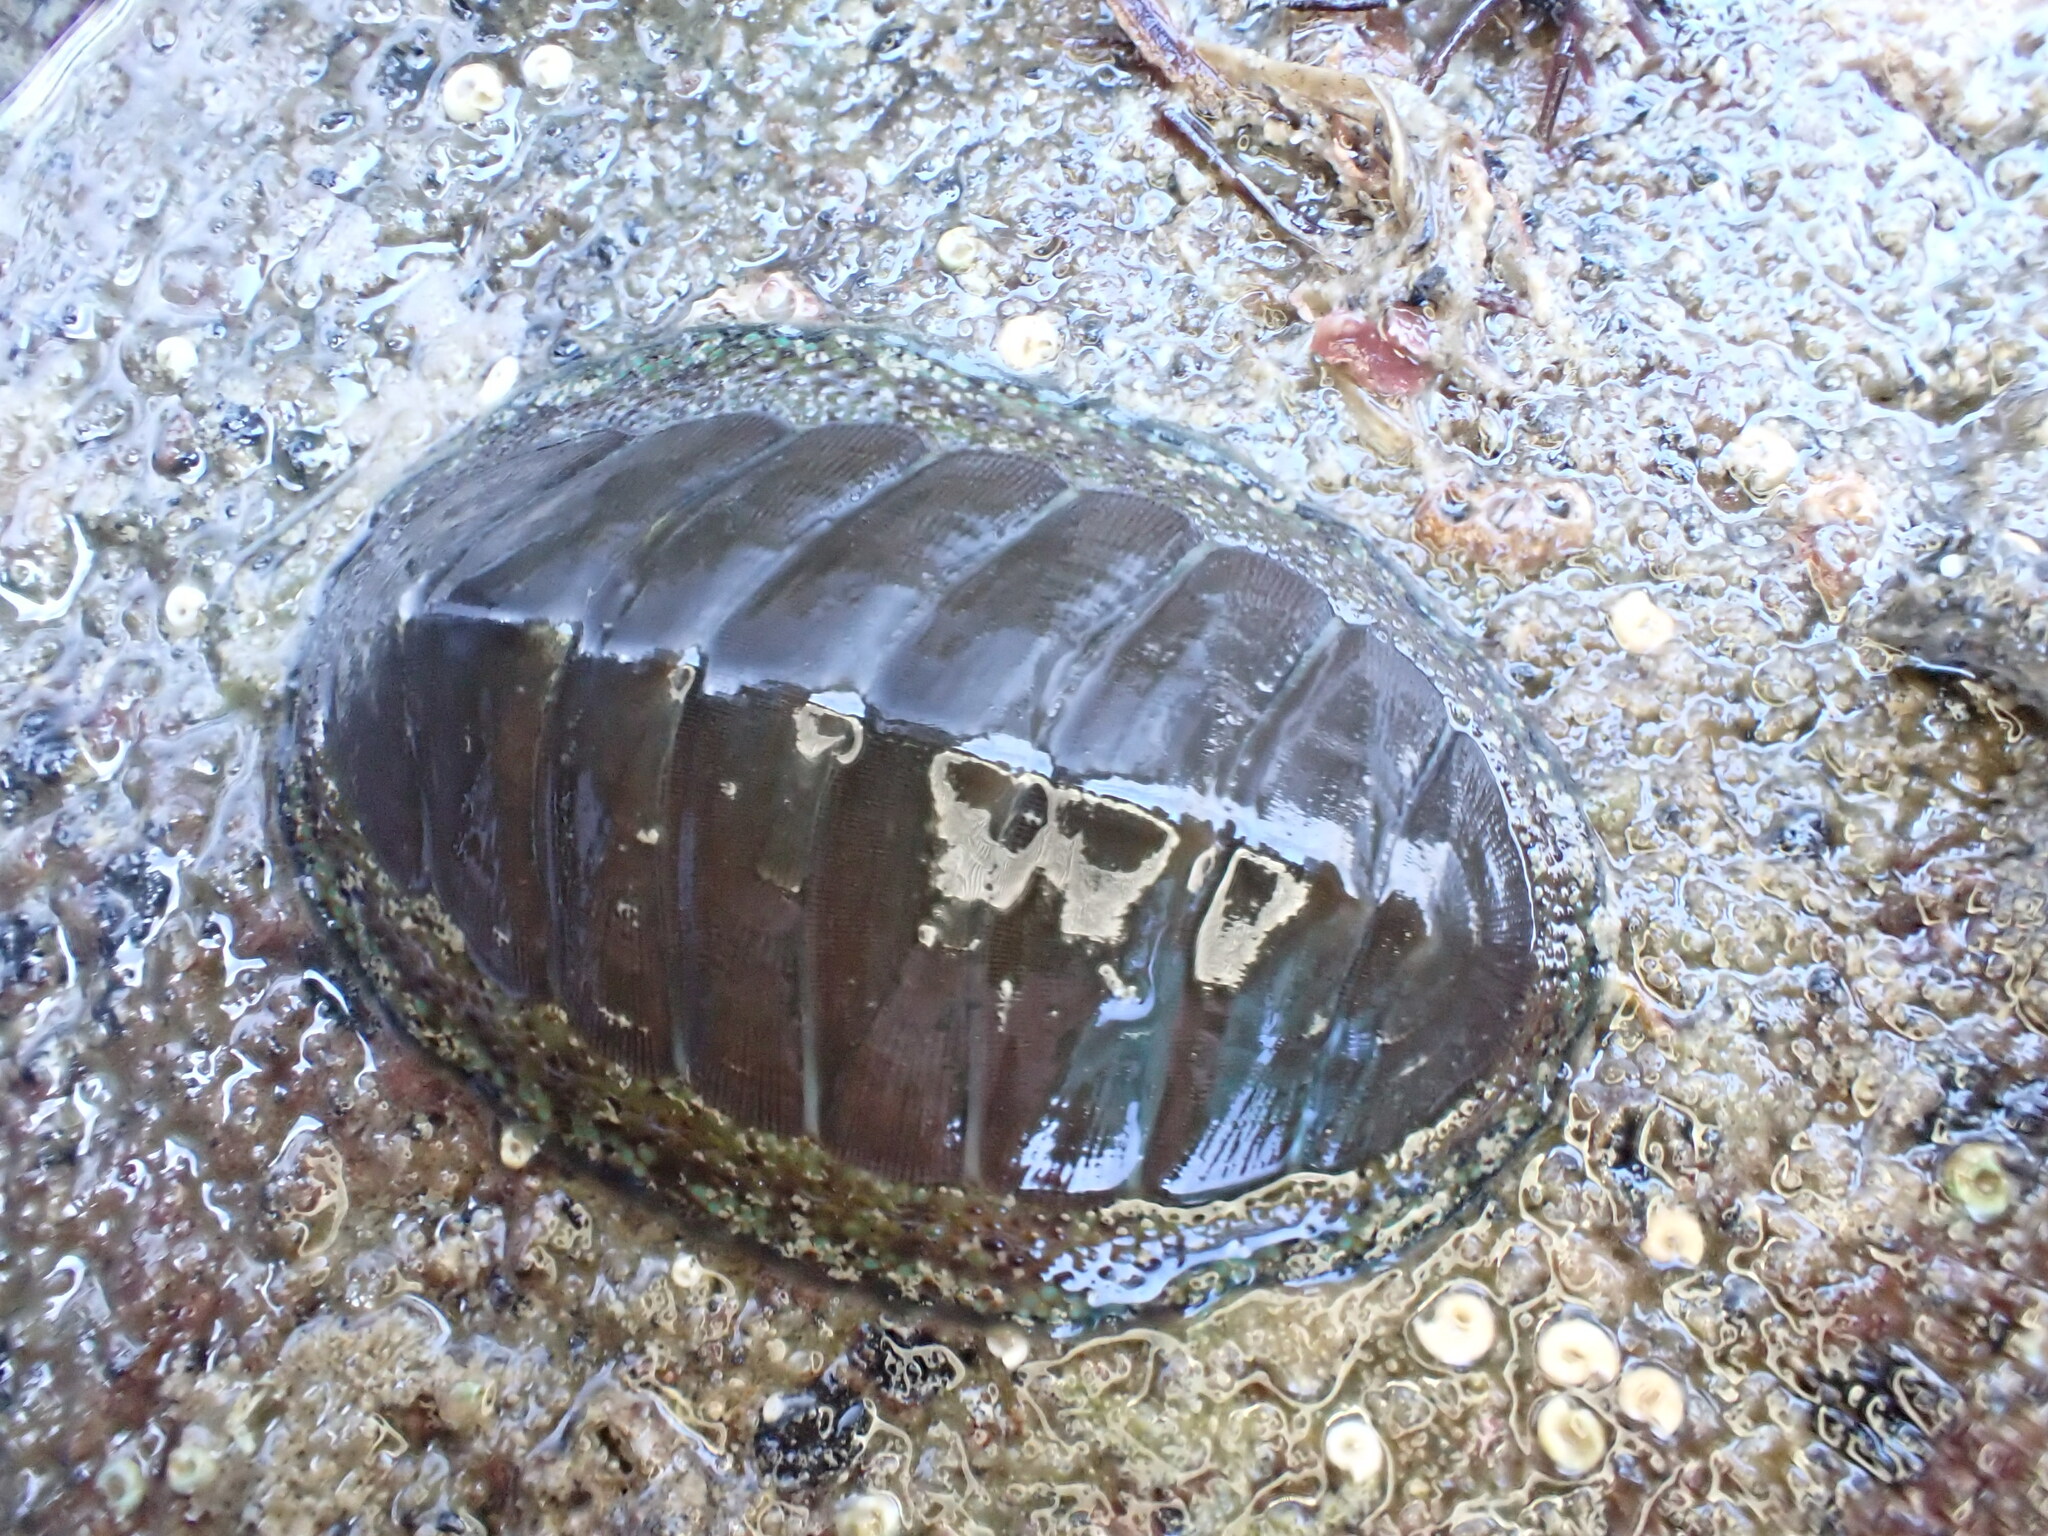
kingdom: Animalia
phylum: Mollusca
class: Polyplacophora
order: Chitonida
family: Chitonidae
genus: Chiton
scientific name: Chiton glaucus
